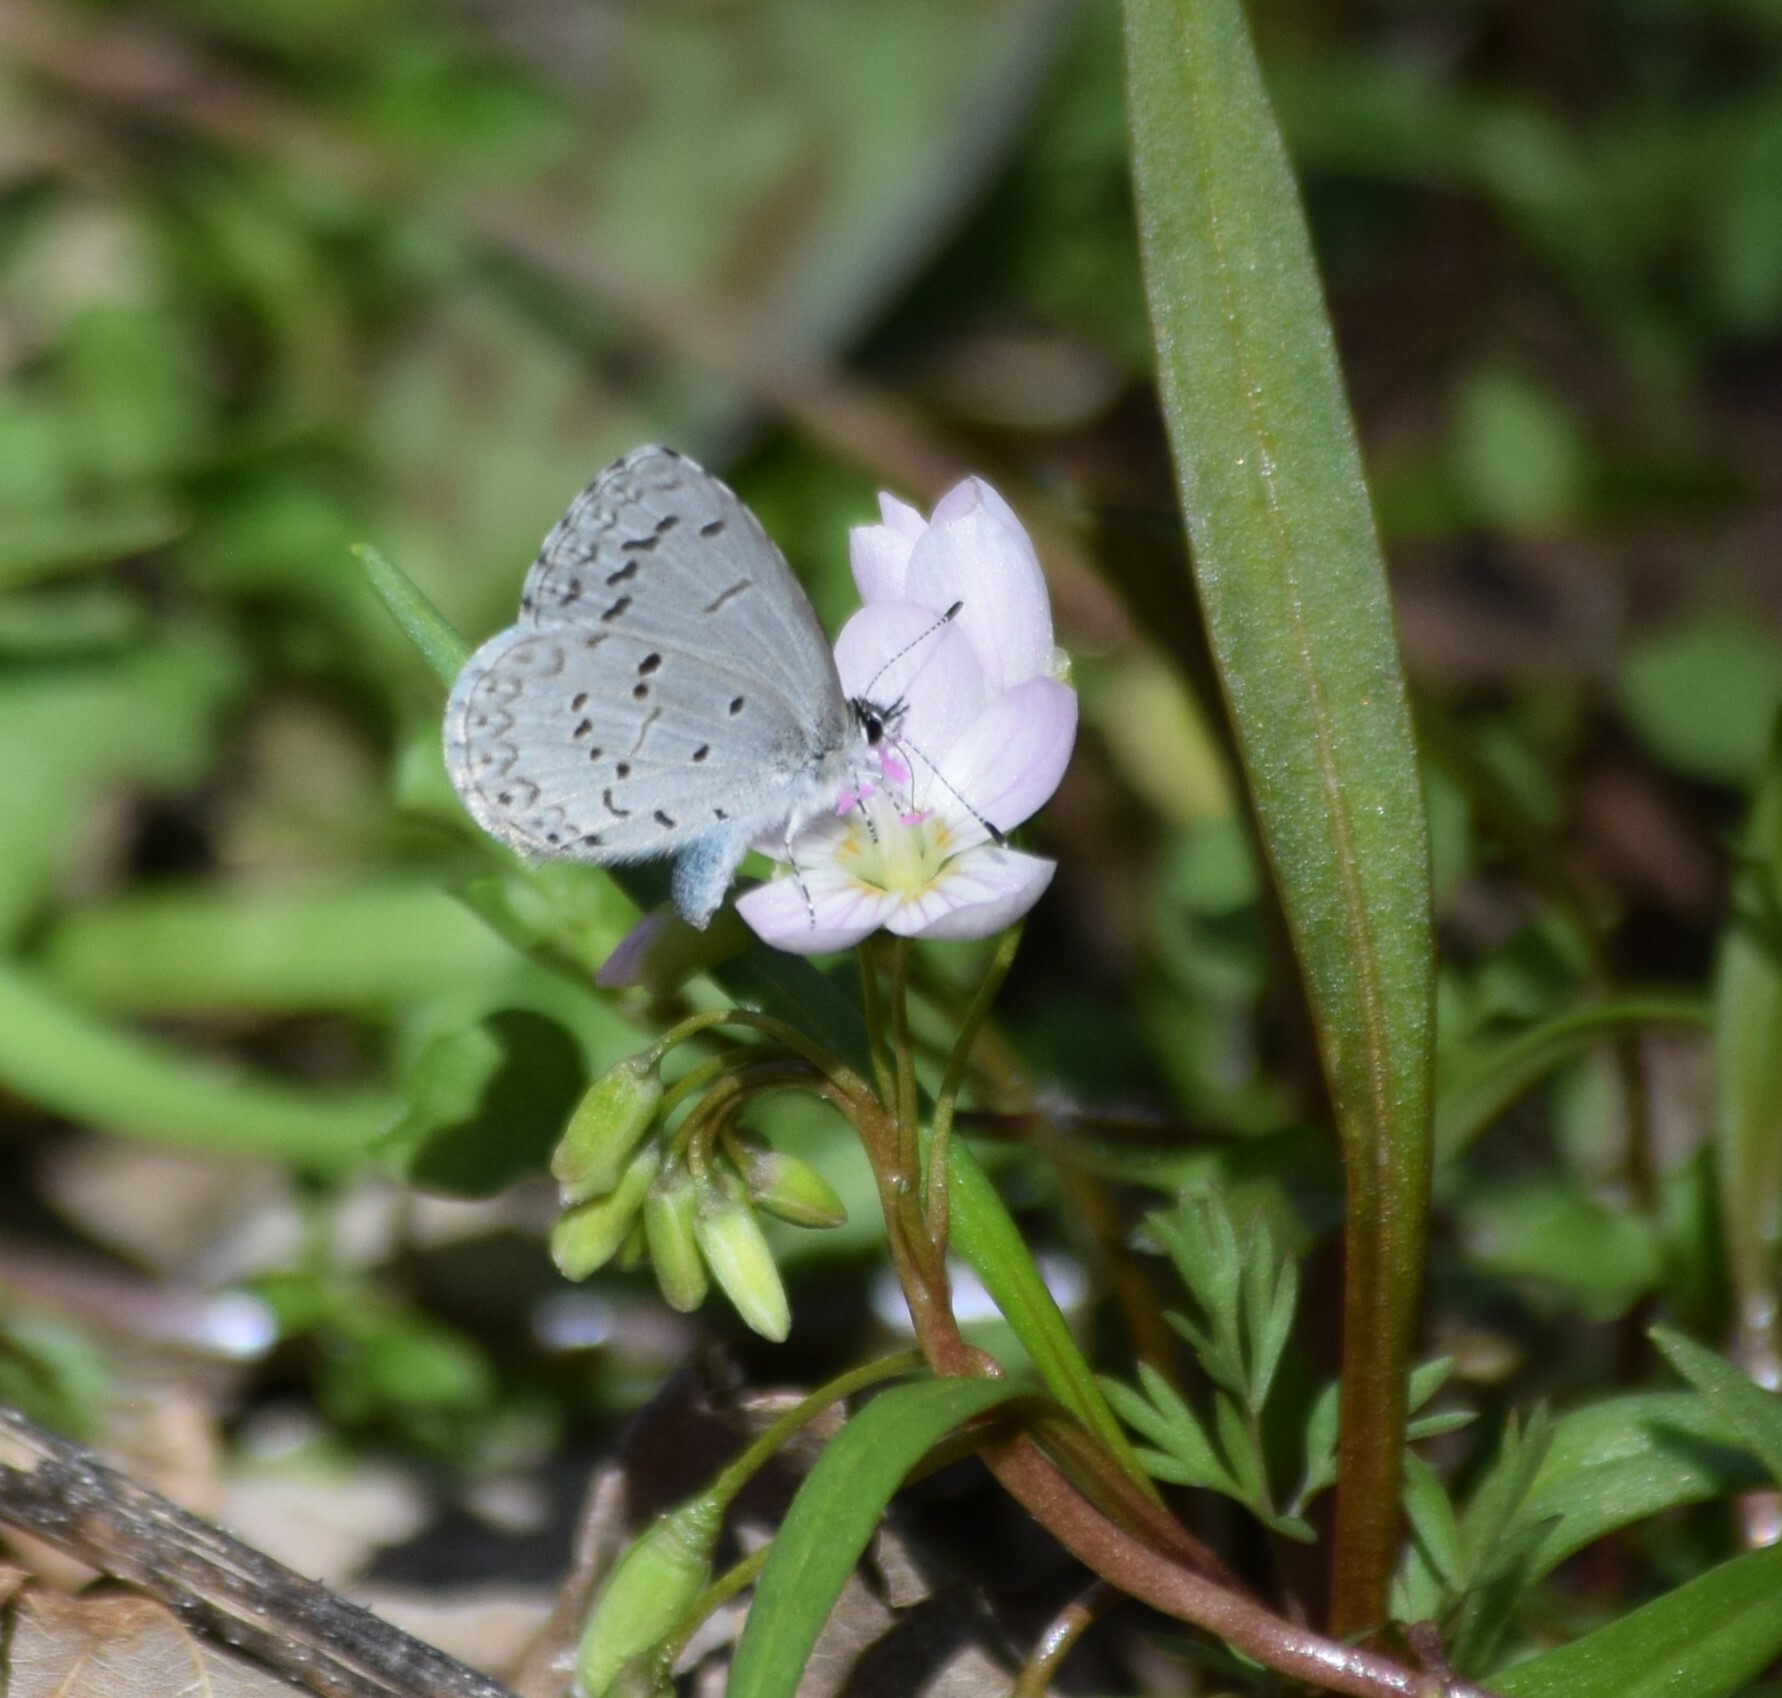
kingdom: Animalia
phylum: Arthropoda
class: Insecta
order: Lepidoptera
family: Lycaenidae
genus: Celastrina
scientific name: Celastrina ladon
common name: Spring azure
